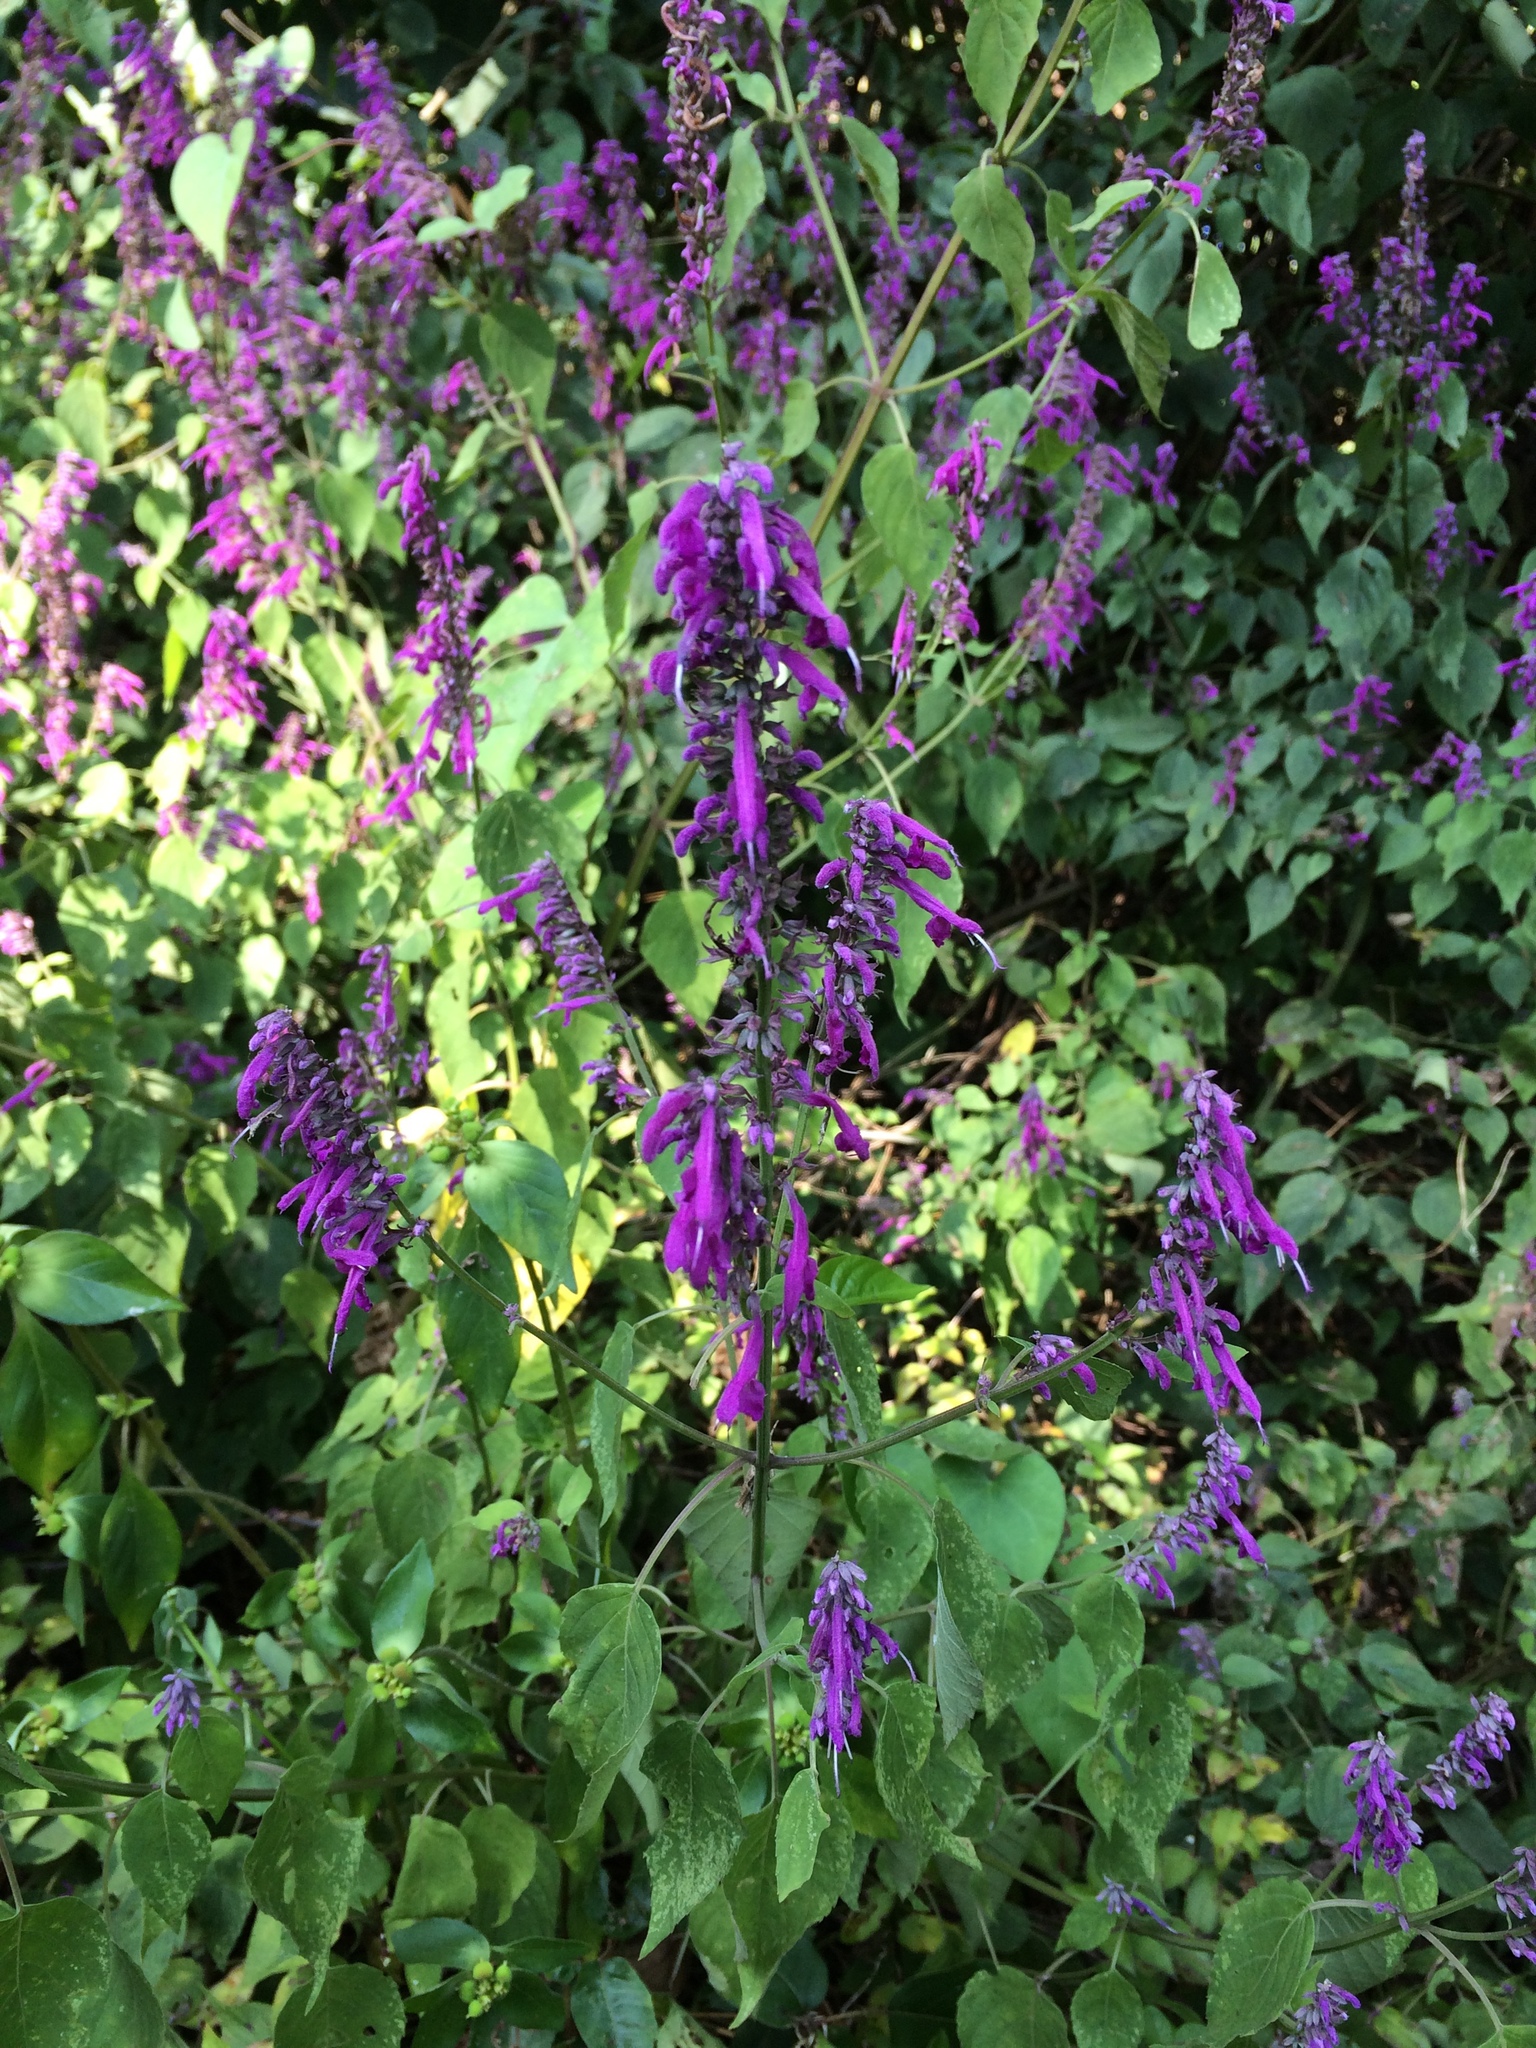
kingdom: Plantae
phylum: Tracheophyta
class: Magnoliopsida
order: Lamiales
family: Lamiaceae
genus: Salvia
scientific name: Salvia purpurea
